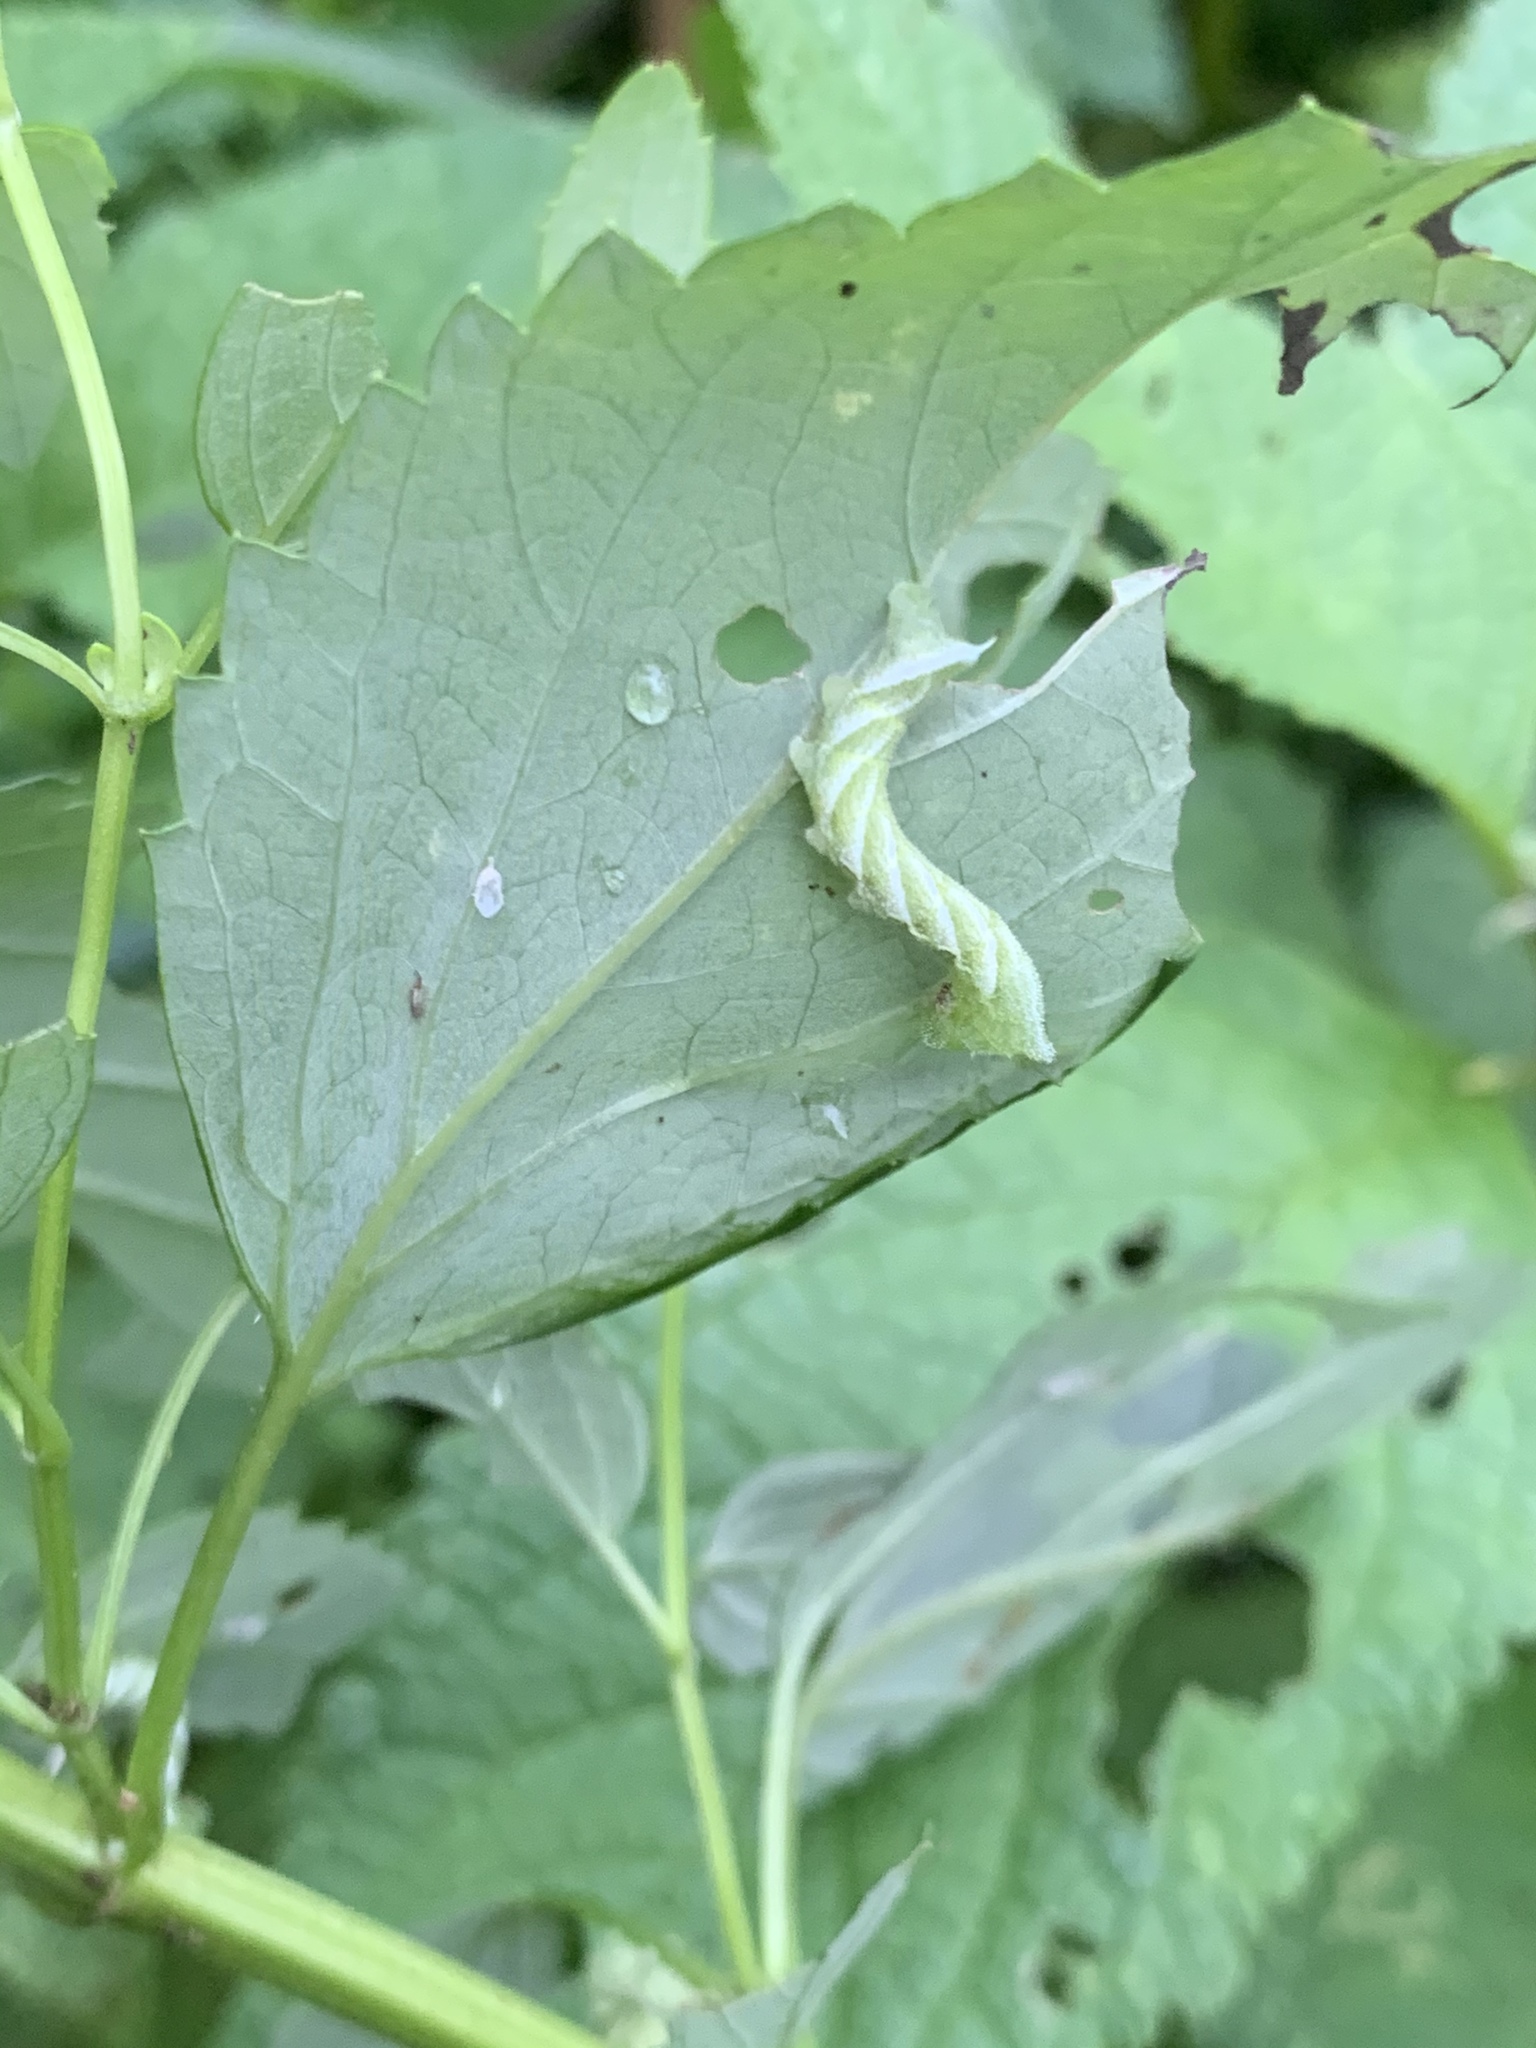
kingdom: Animalia
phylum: Arthropoda
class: Insecta
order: Lepidoptera
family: Sphingidae
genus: Lintneria
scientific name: Lintneria eremitus
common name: Hermit sphinx
